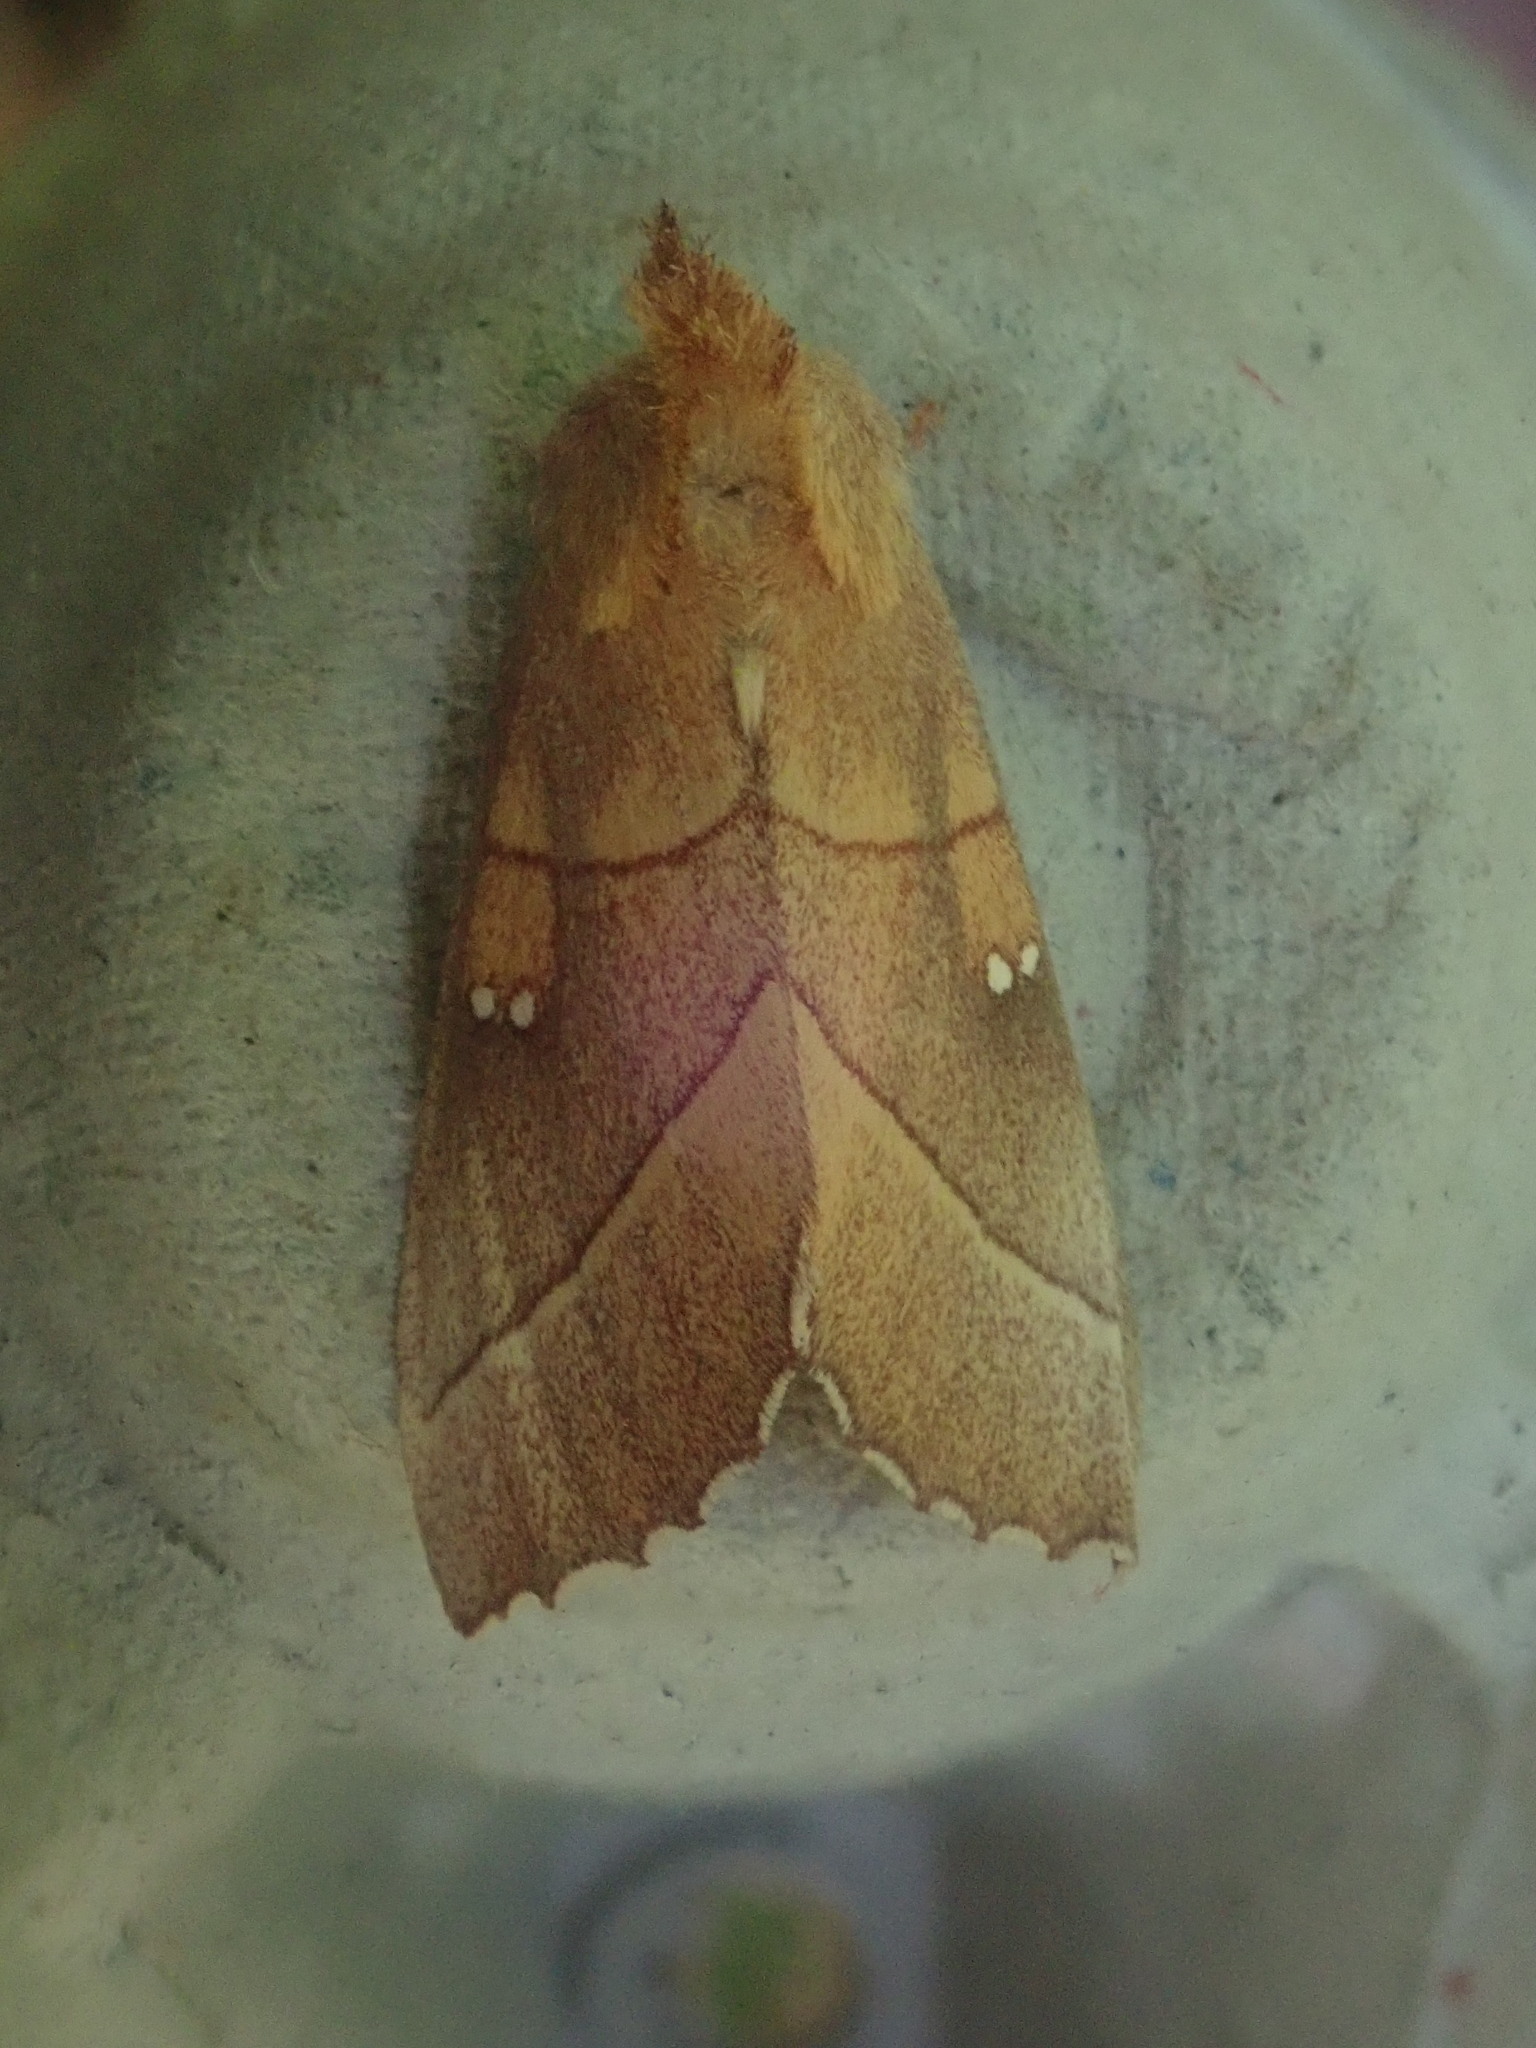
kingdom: Animalia
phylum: Arthropoda
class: Insecta
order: Lepidoptera
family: Notodontidae
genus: Nadata
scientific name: Nadata gibbosa
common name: White-dotted prominent
